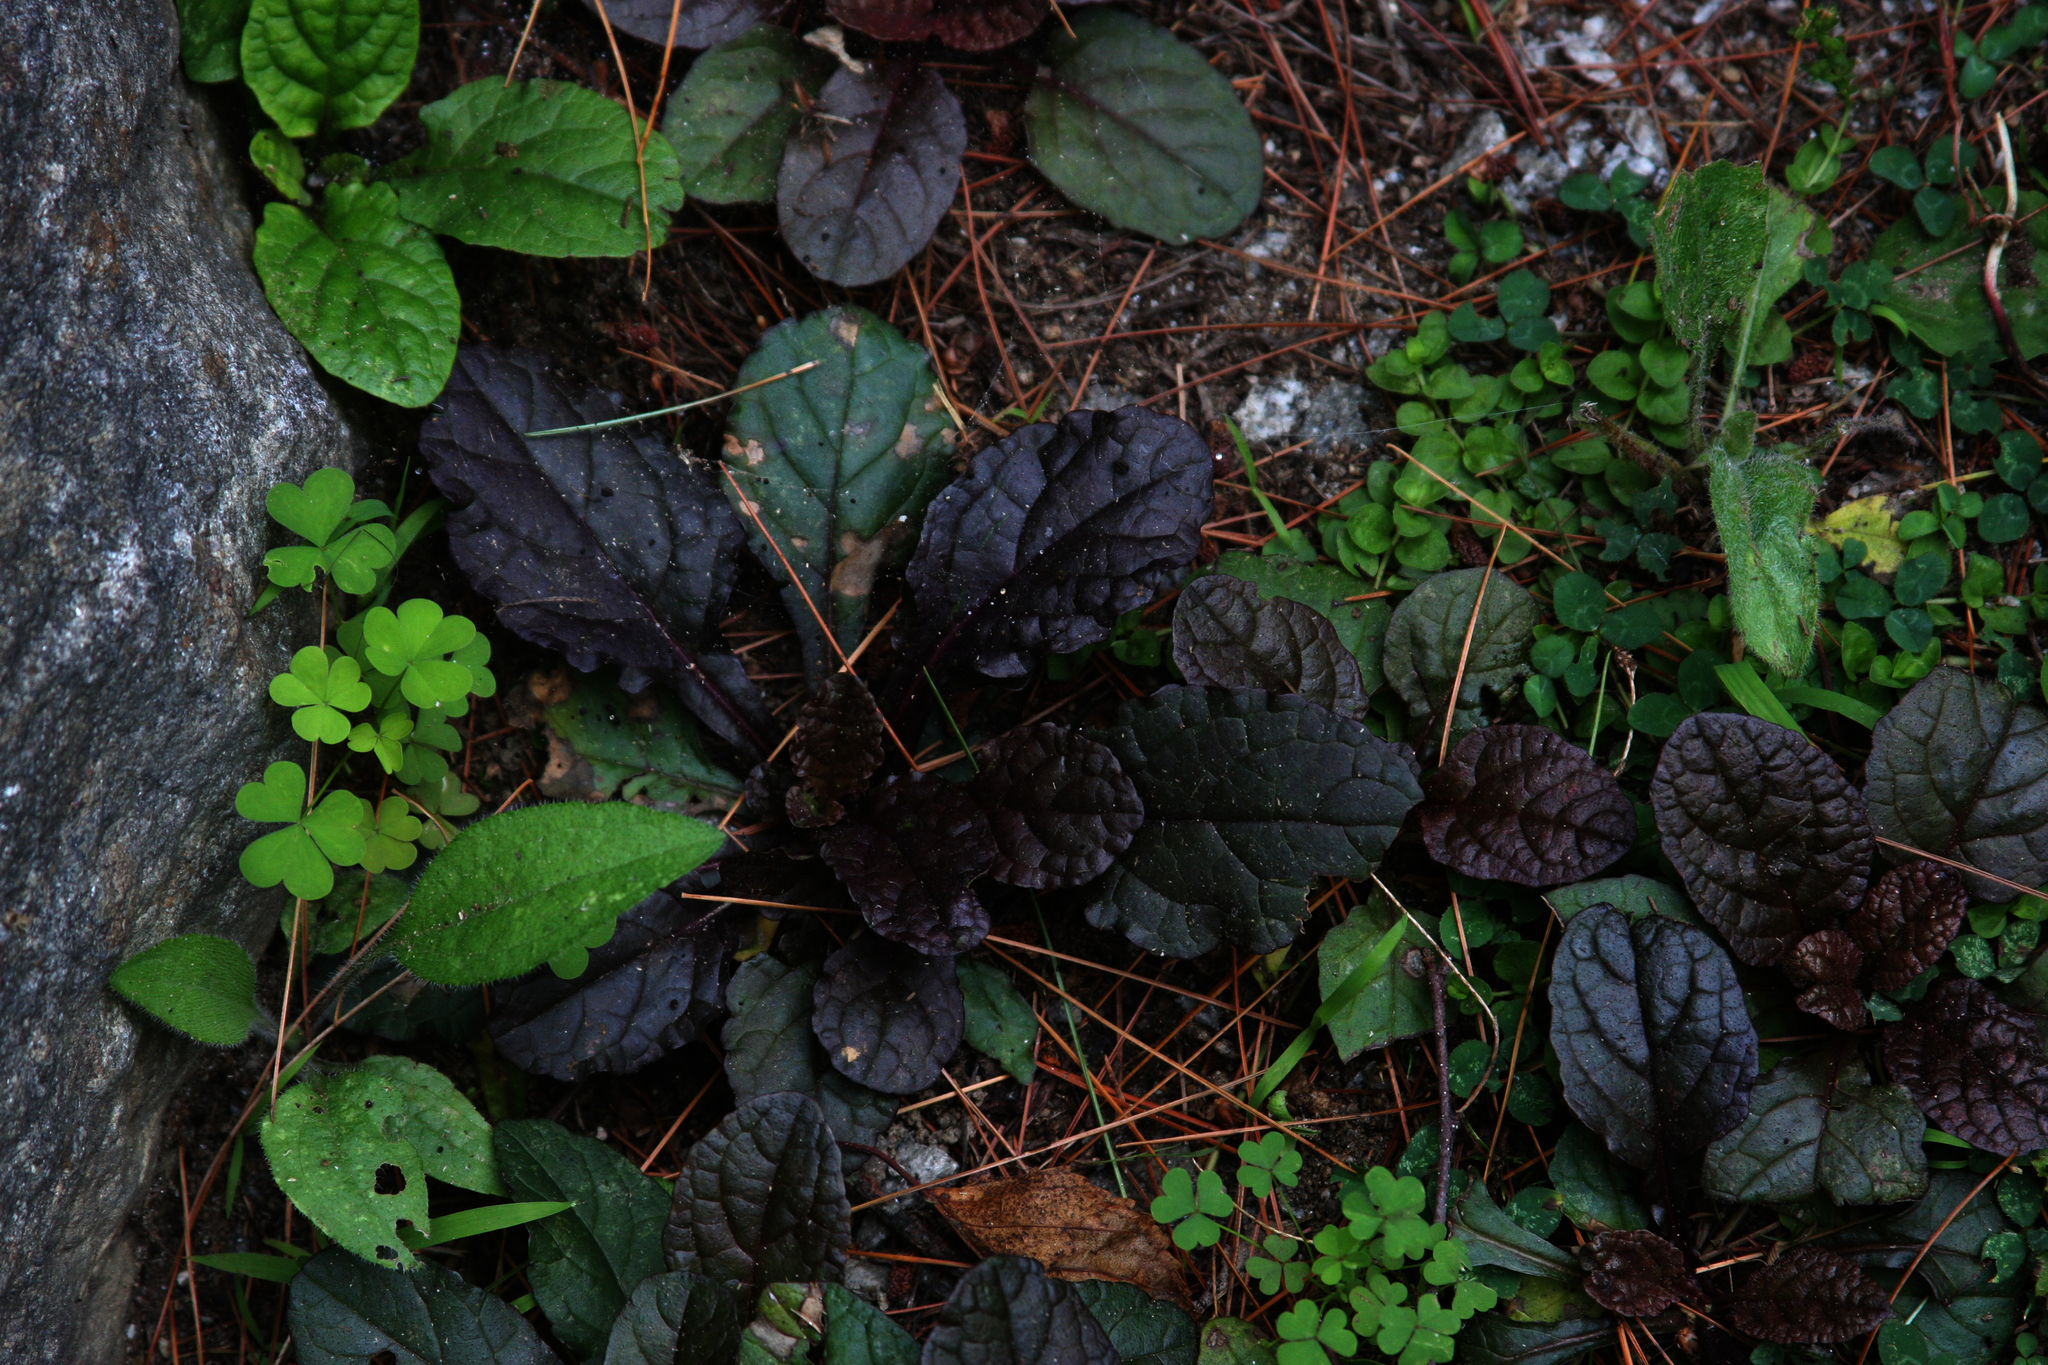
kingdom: Plantae
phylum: Tracheophyta
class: Magnoliopsida
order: Lamiales
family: Lamiaceae
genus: Ajuga
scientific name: Ajuga reptans
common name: Bugle
